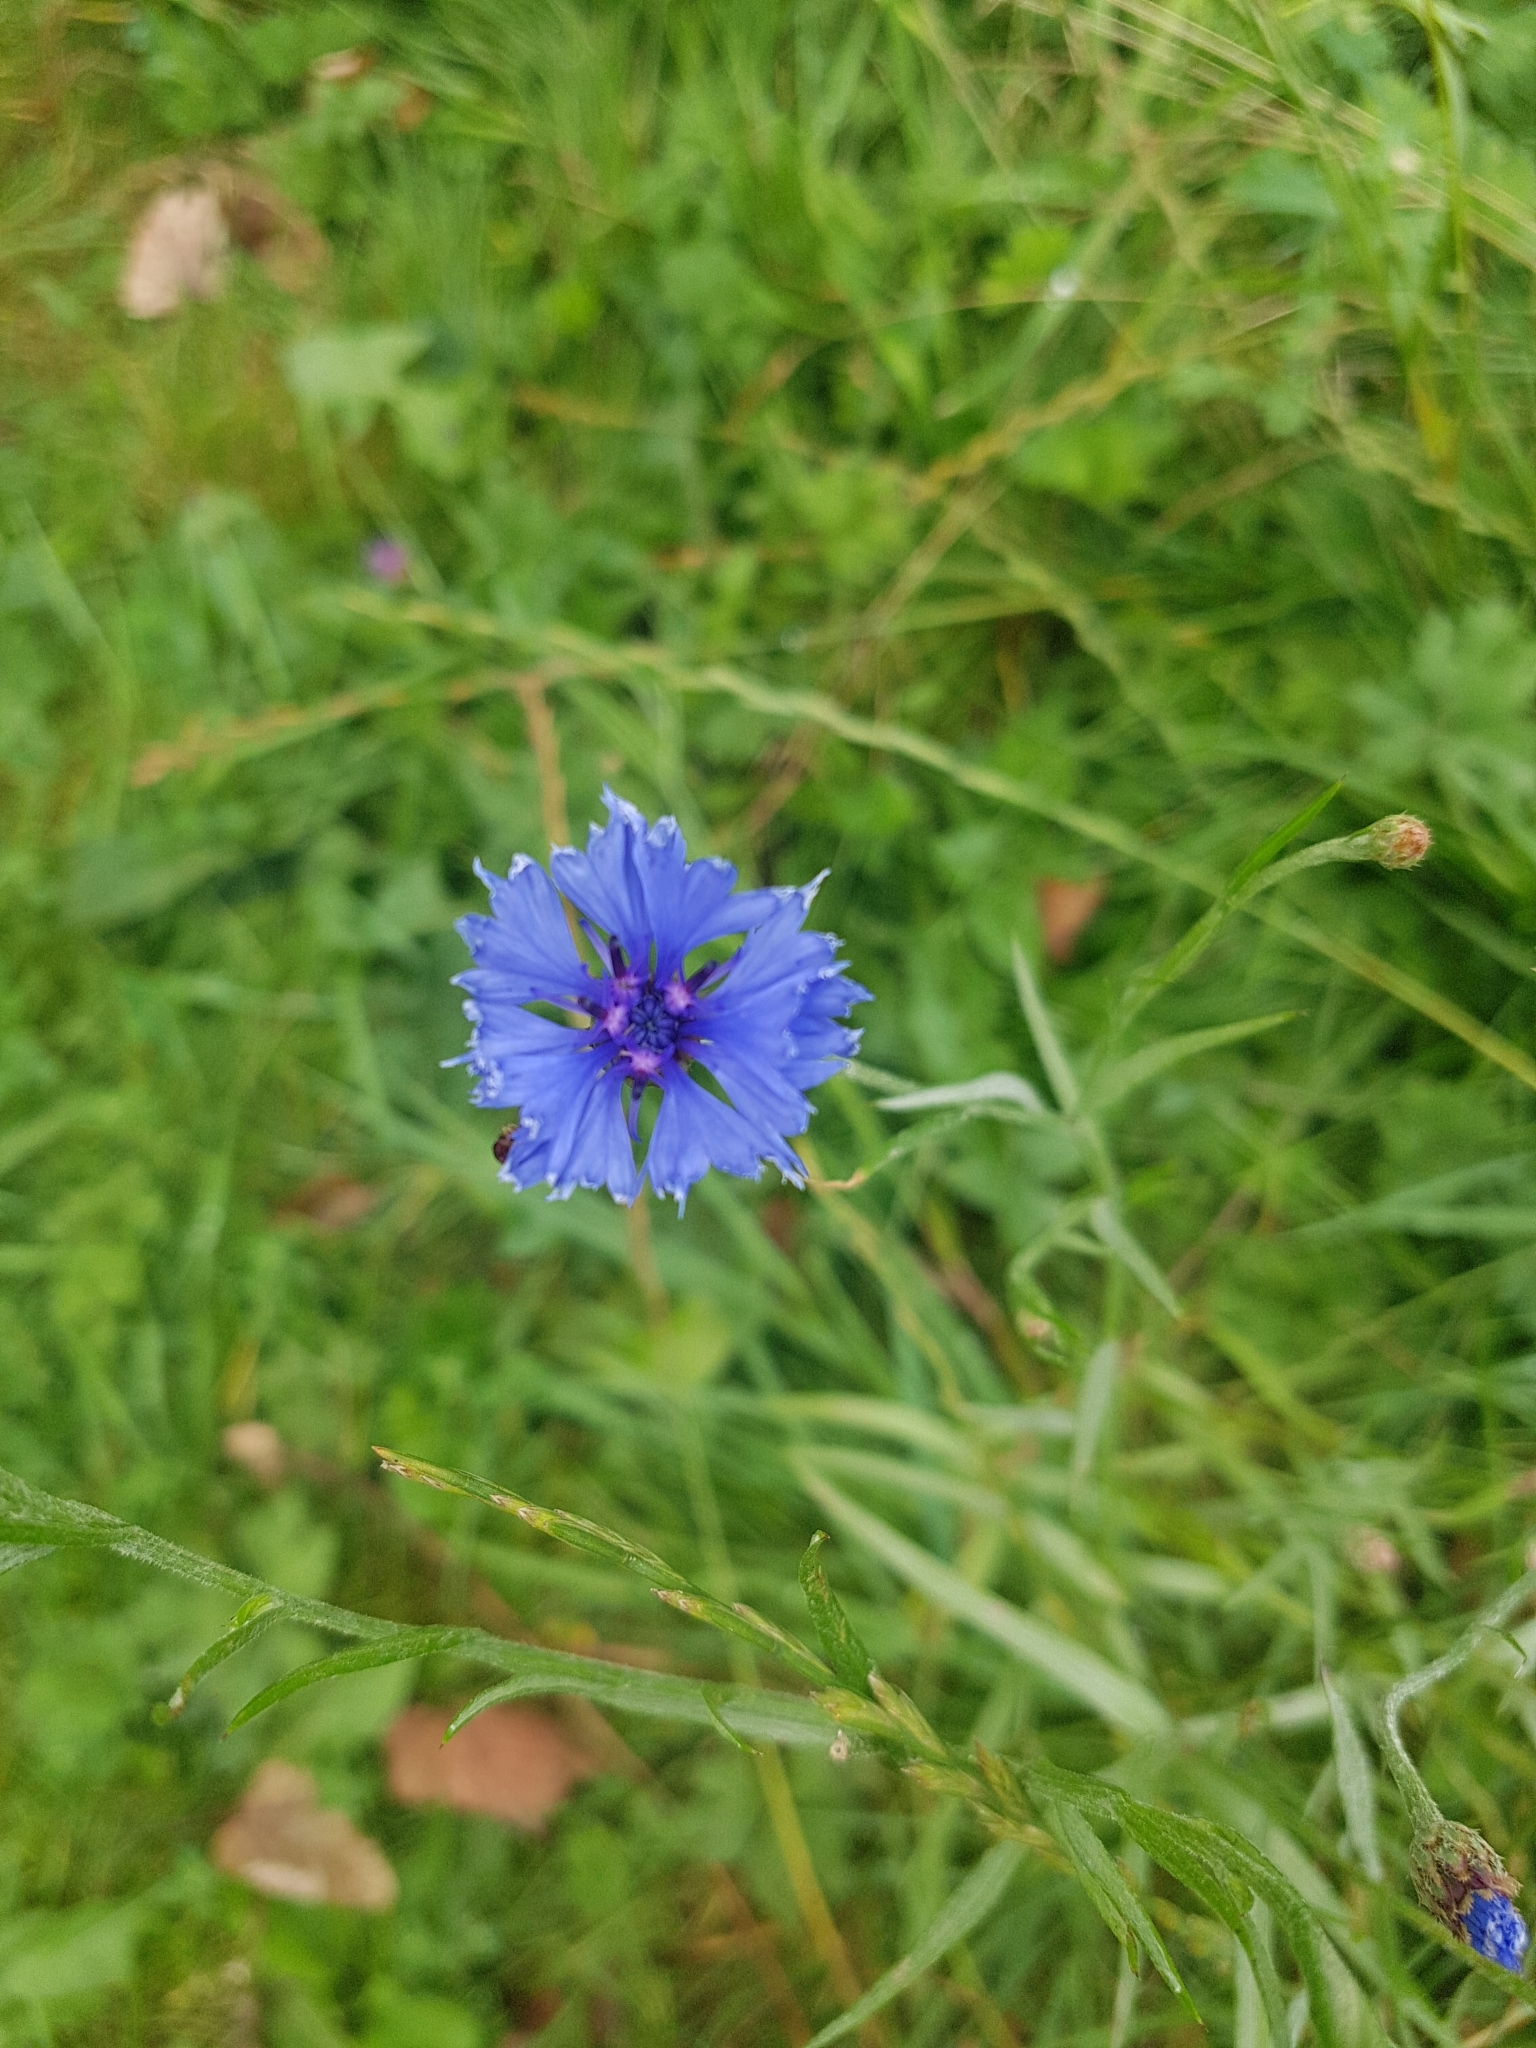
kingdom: Plantae
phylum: Tracheophyta
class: Magnoliopsida
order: Asterales
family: Asteraceae
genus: Centaurea
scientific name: Centaurea cyanus
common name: Cornflower
